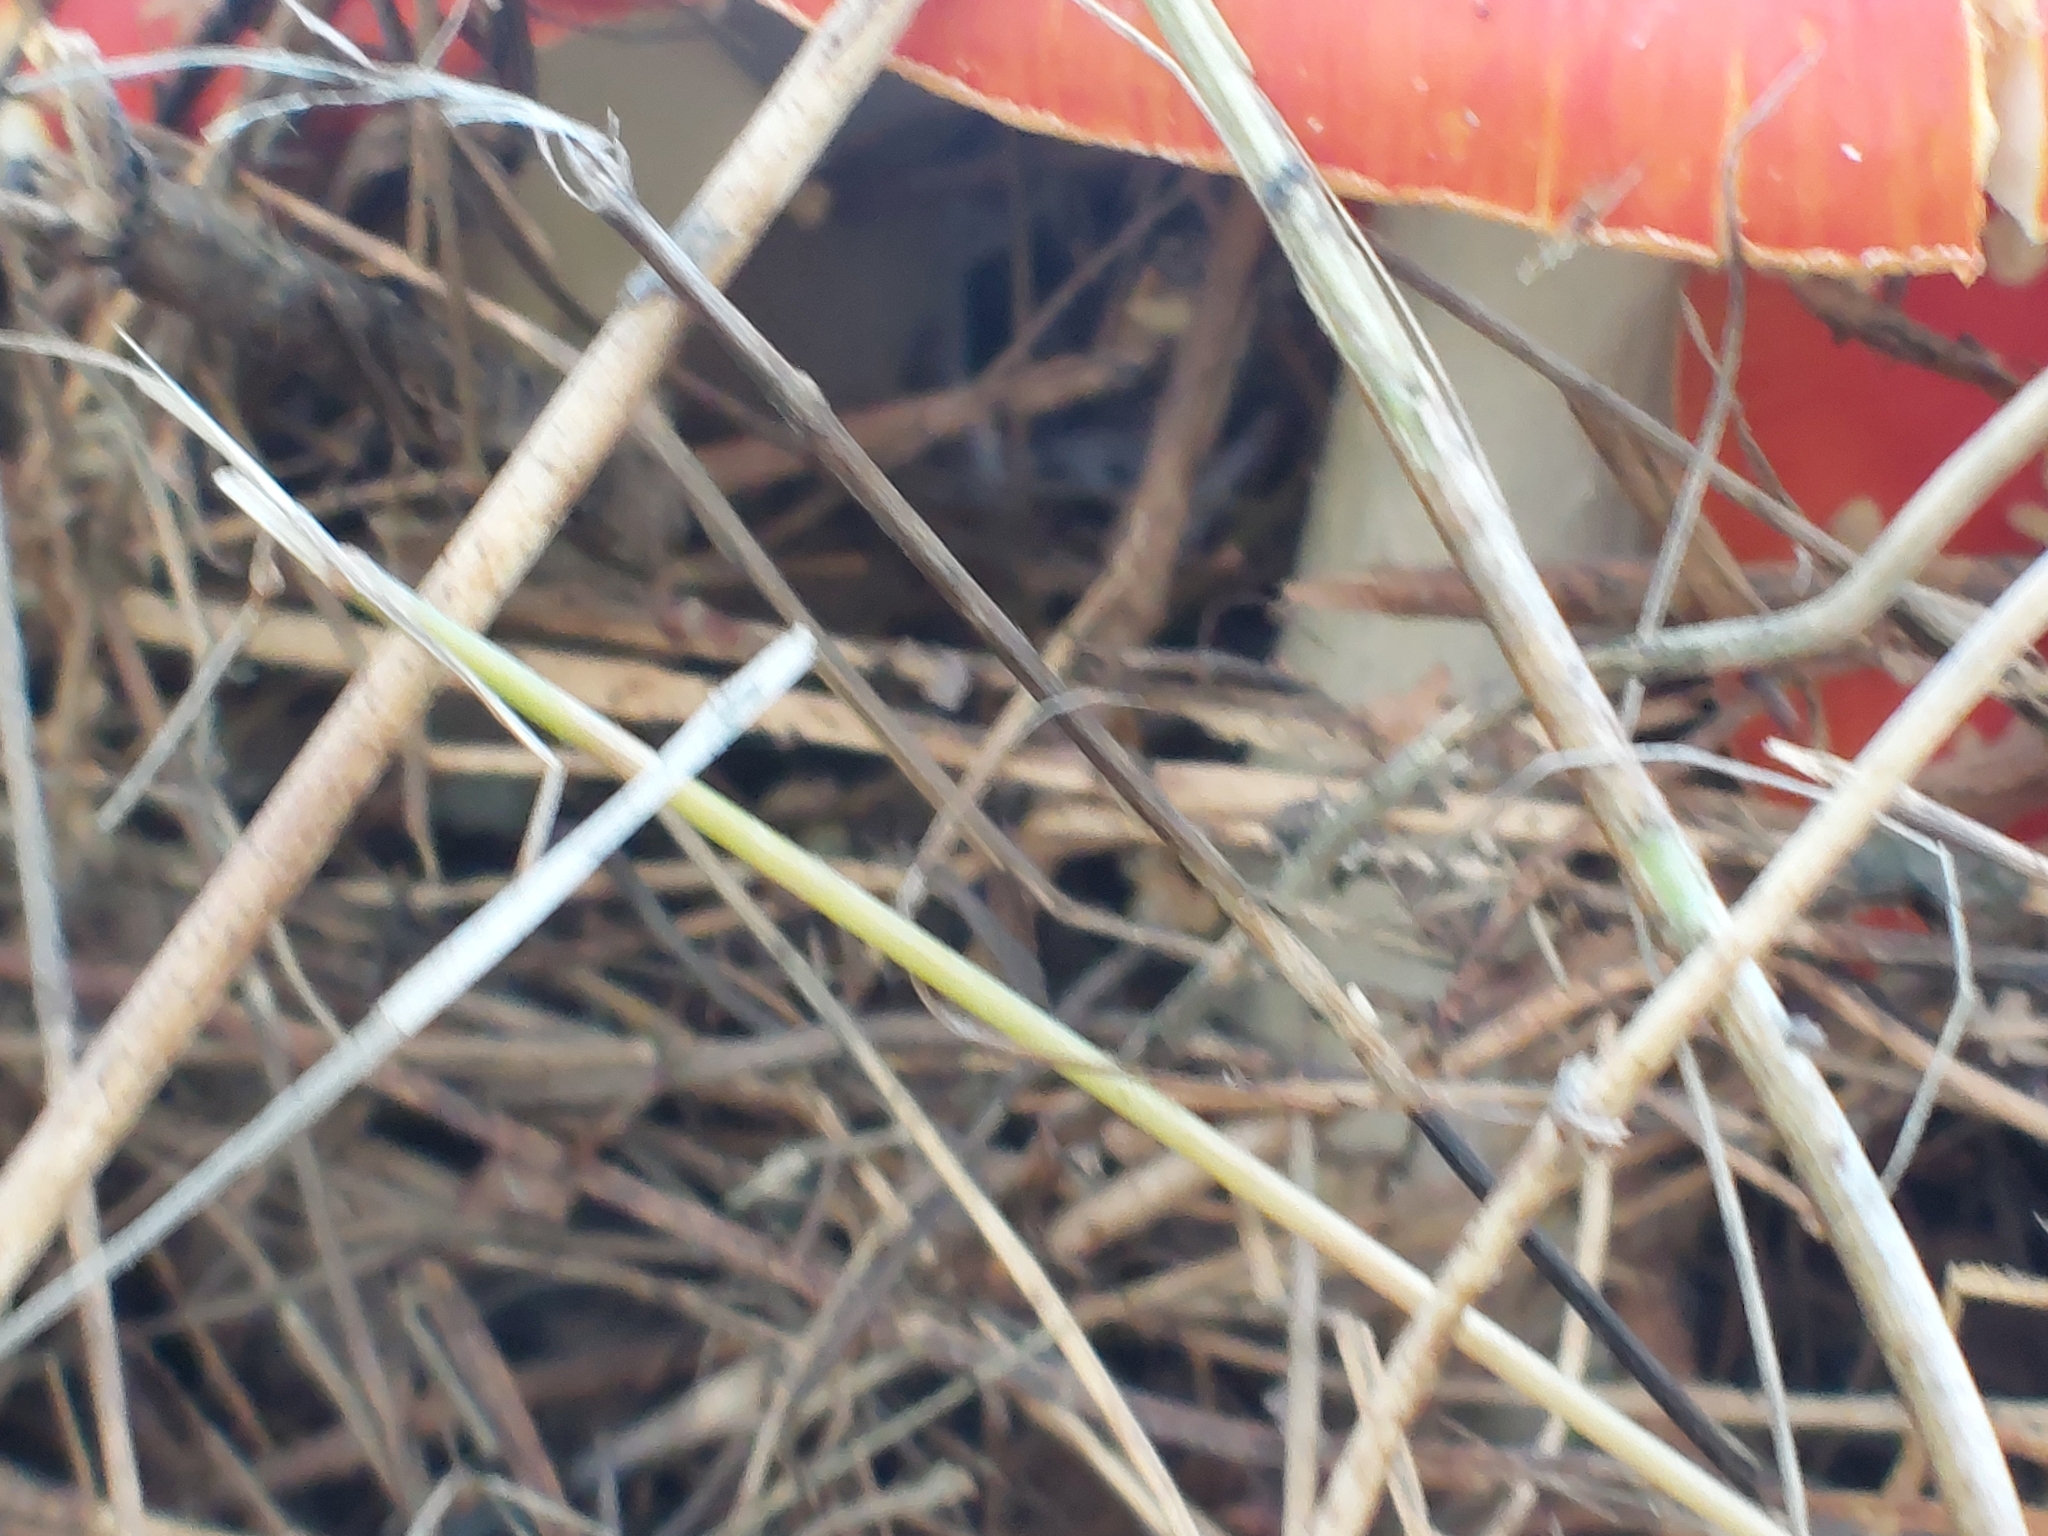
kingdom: Fungi
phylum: Basidiomycota
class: Agaricomycetes
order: Agaricales
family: Amanitaceae
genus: Amanita
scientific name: Amanita muscaria
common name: Fly agaric
